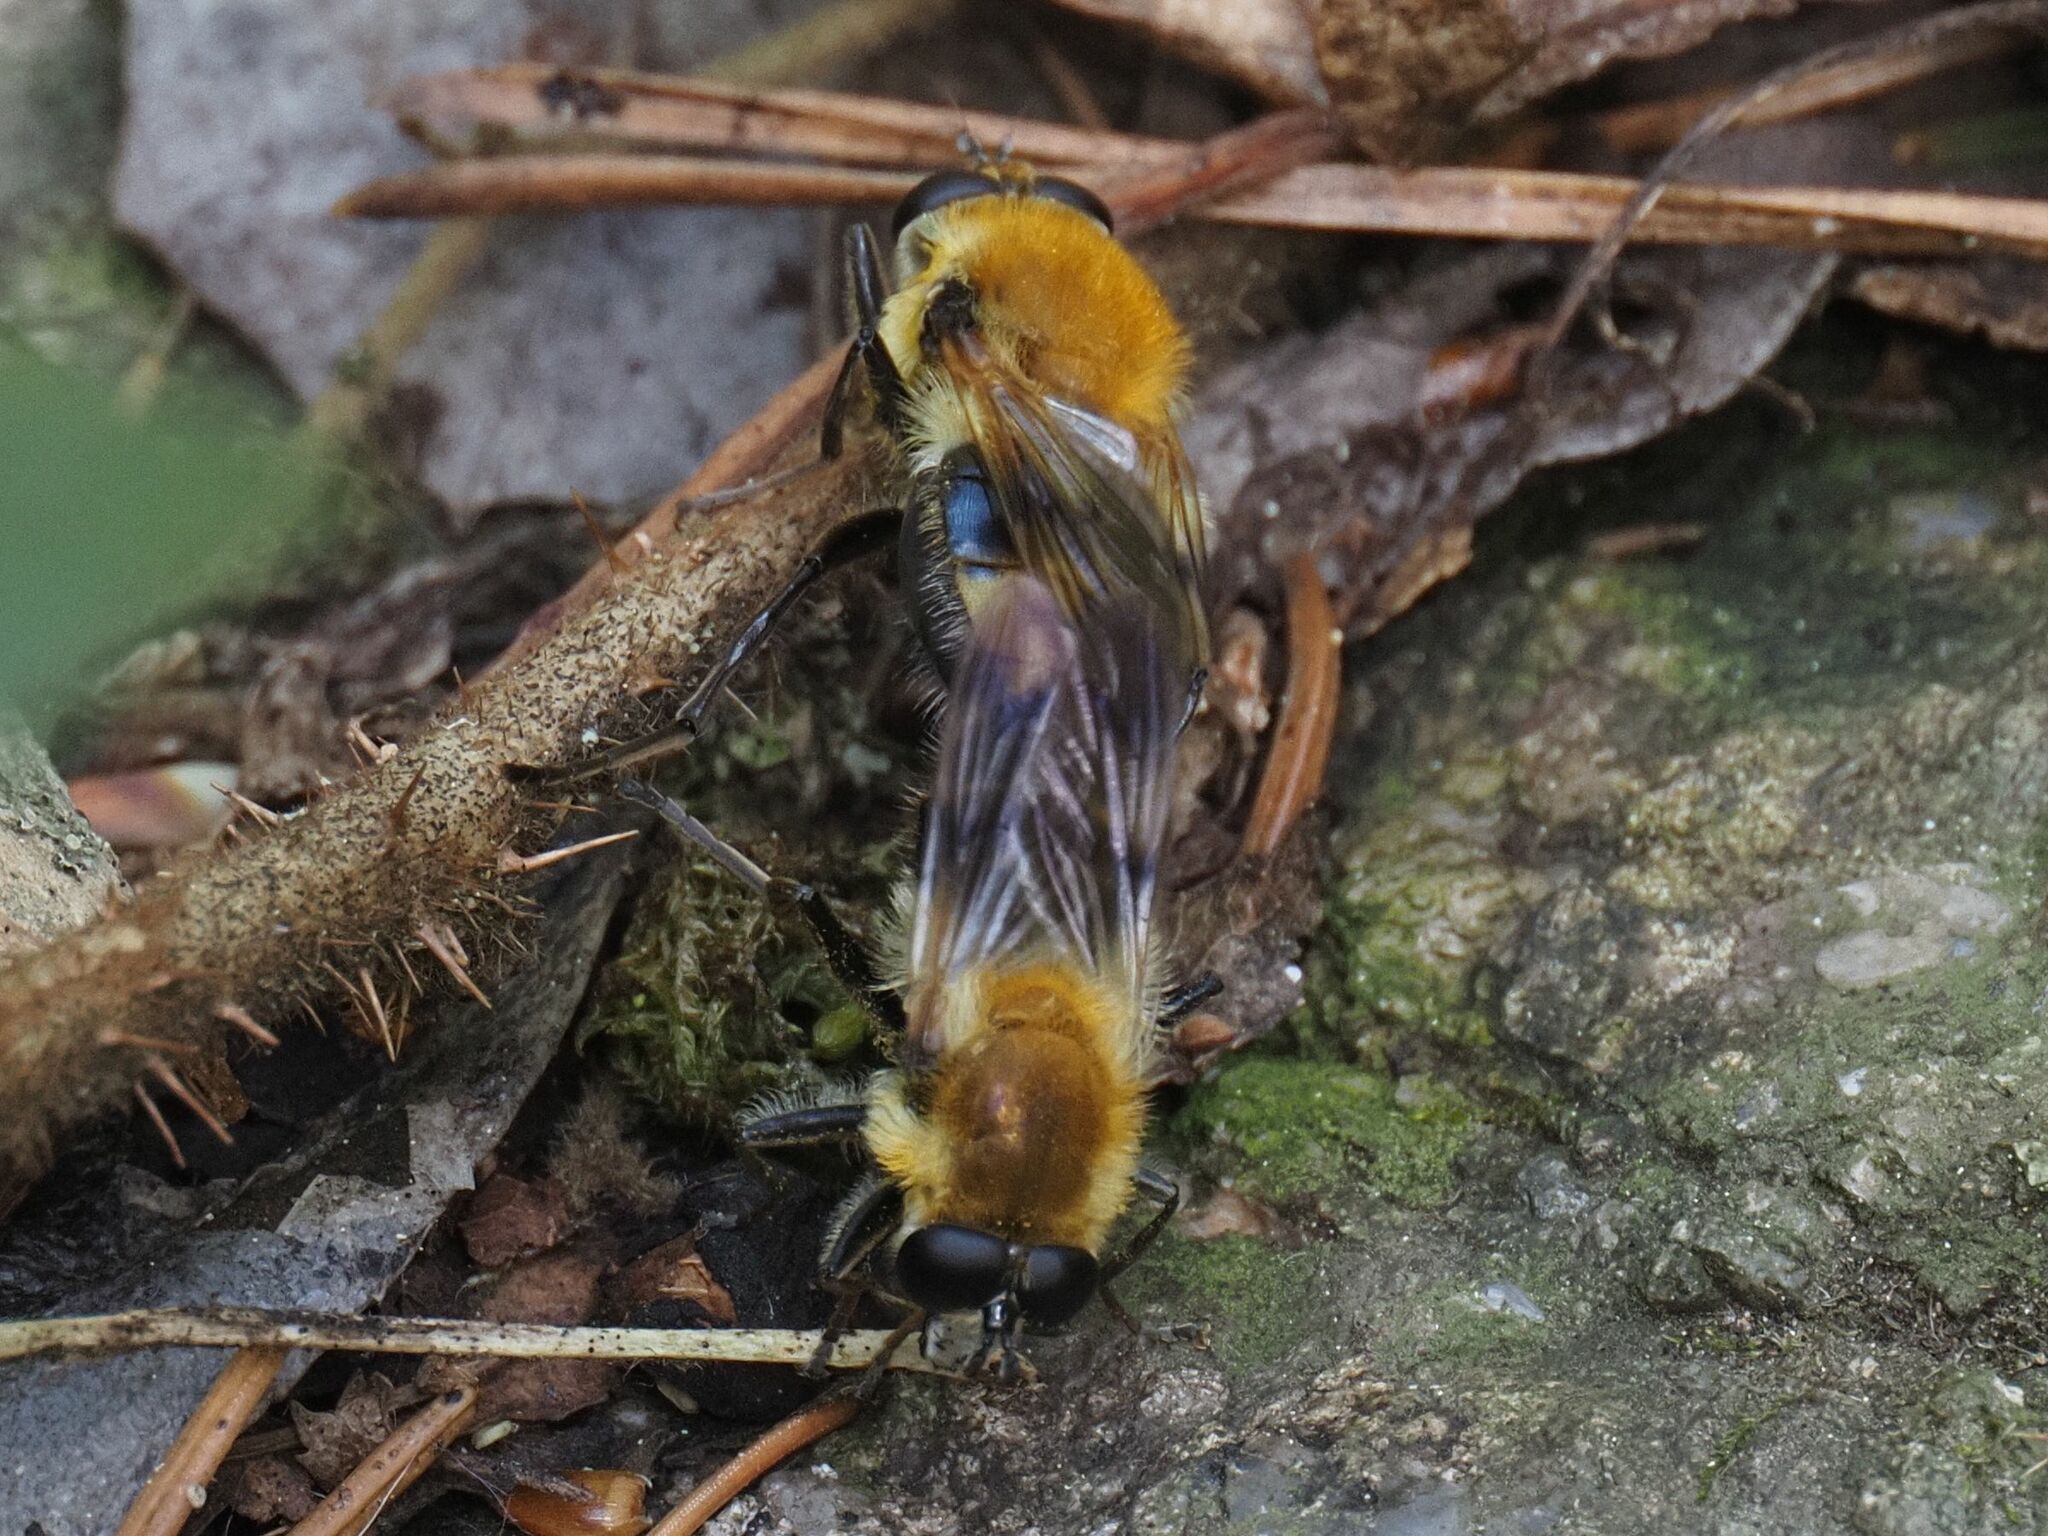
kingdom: Animalia
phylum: Arthropoda
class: Insecta
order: Diptera
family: Syrphidae
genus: Criorhina
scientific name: Criorhina floccosa
